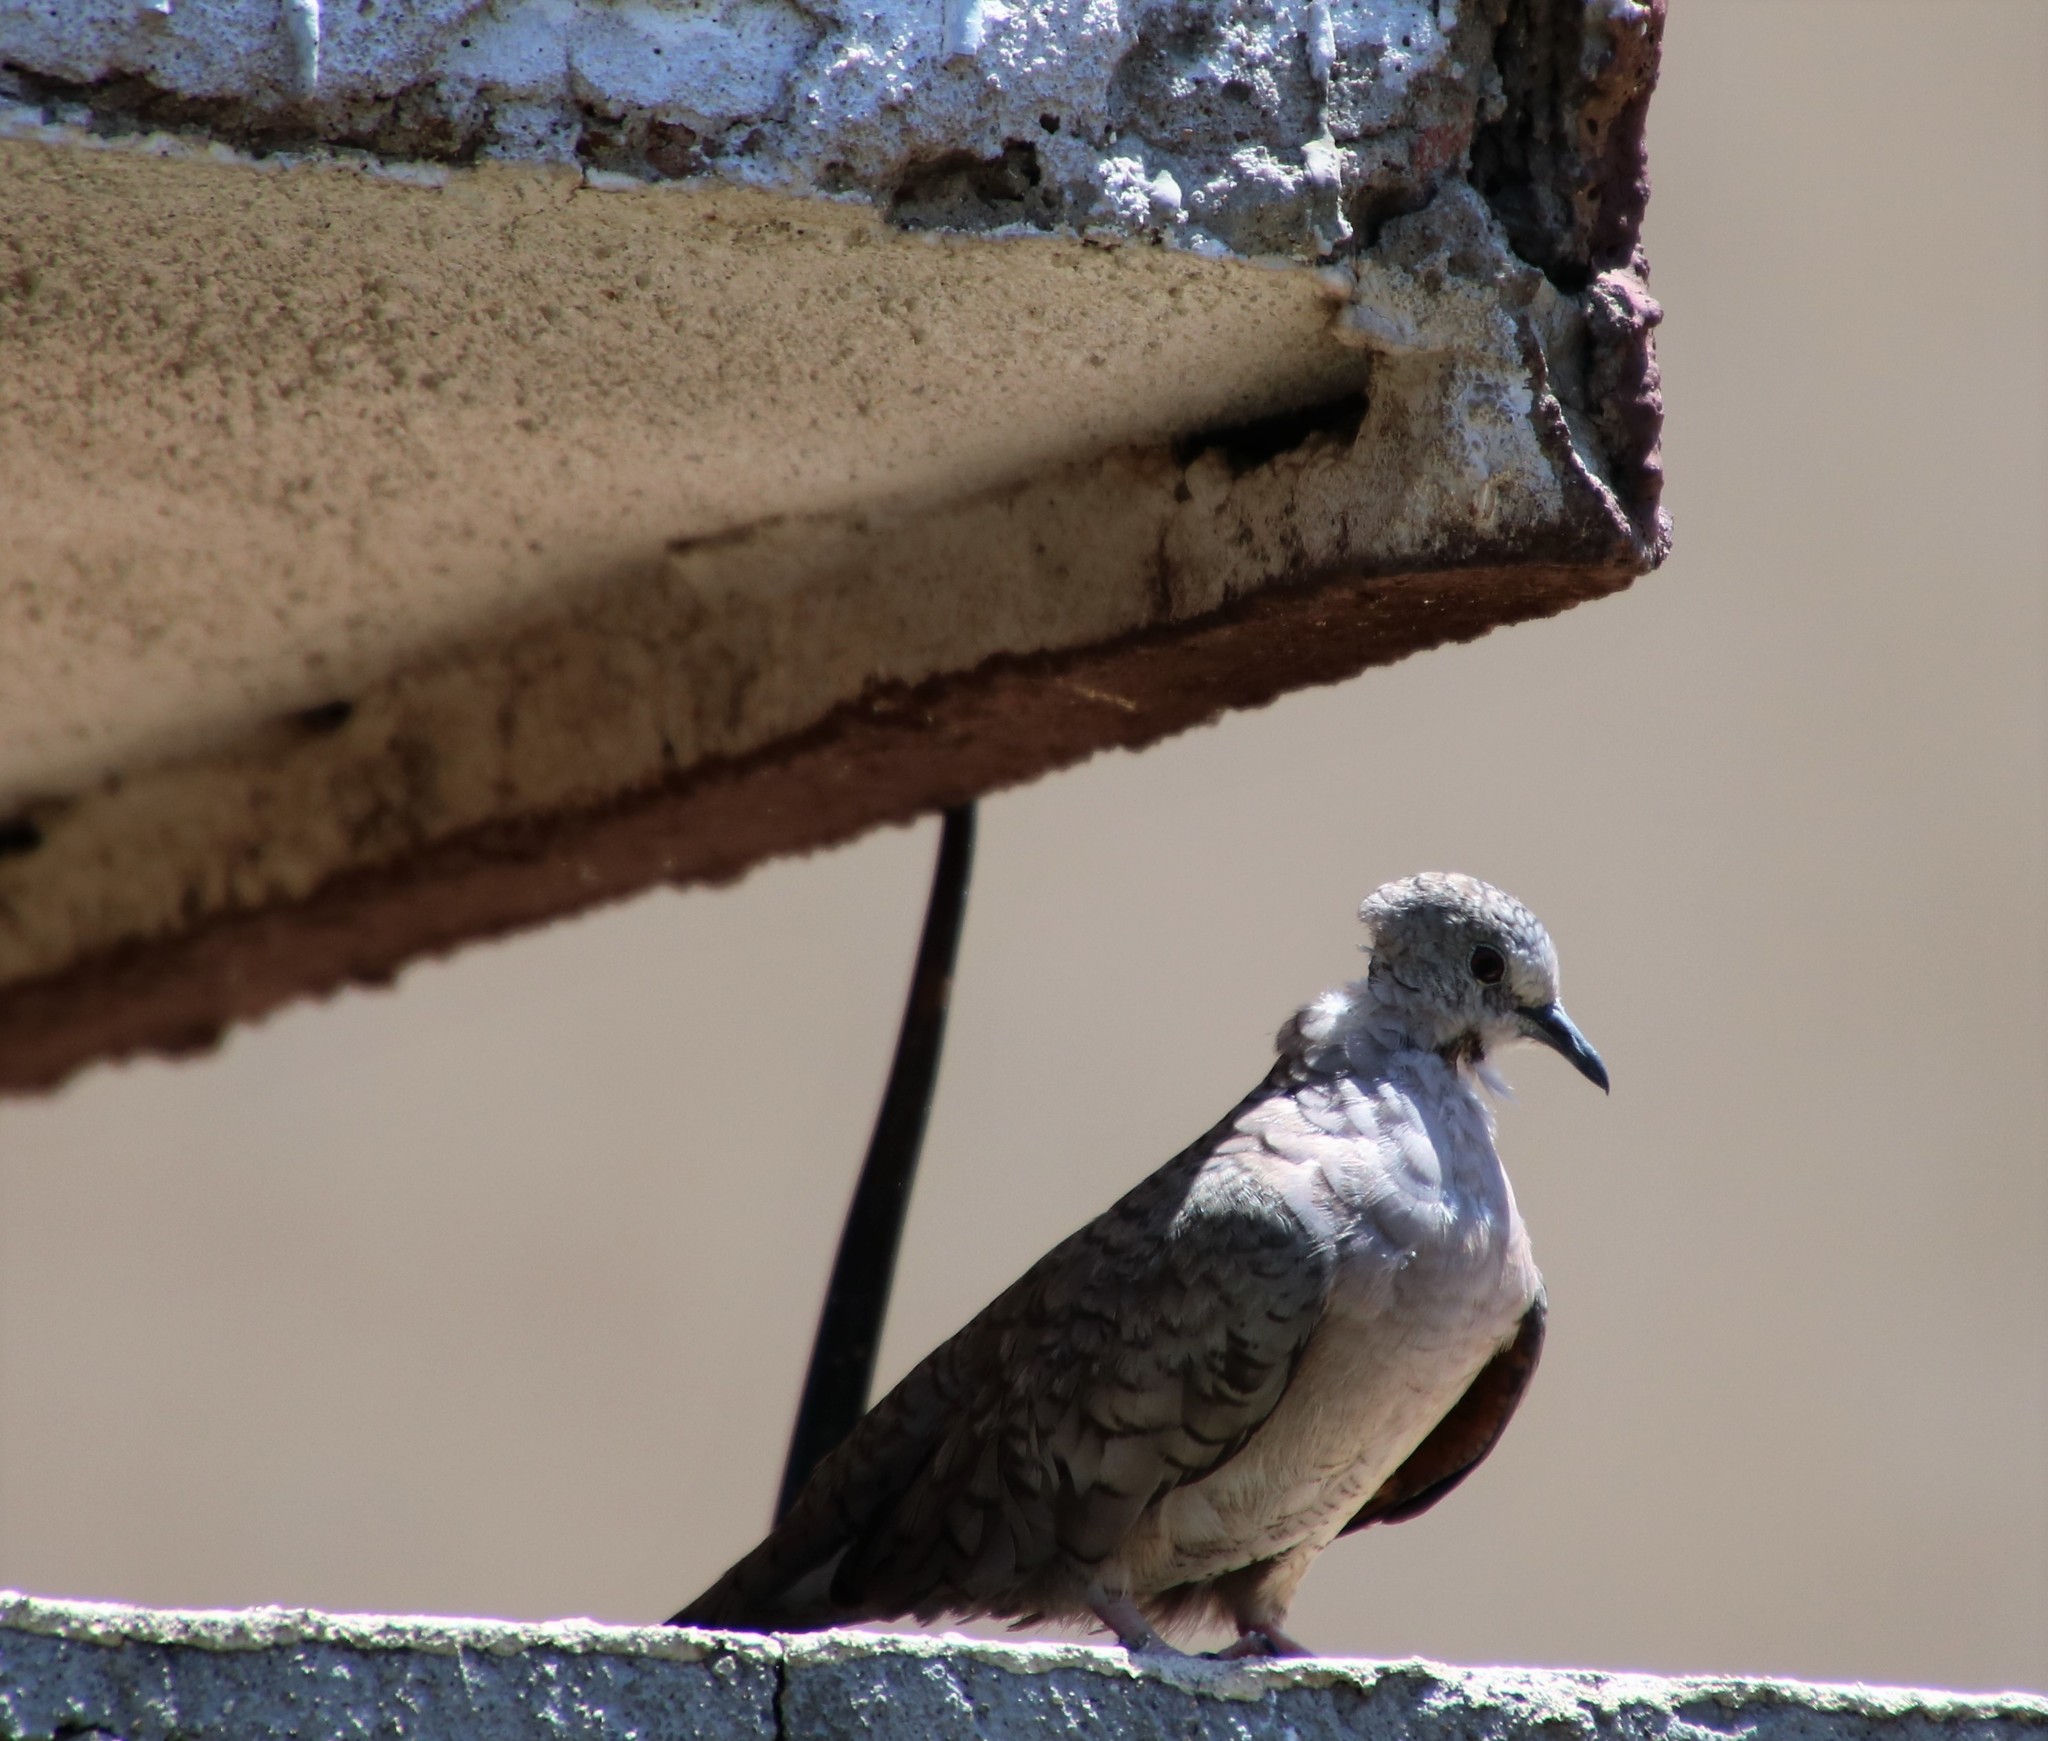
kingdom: Animalia
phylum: Chordata
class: Aves
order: Columbiformes
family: Columbidae
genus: Columbina
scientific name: Columbina inca
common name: Inca dove
